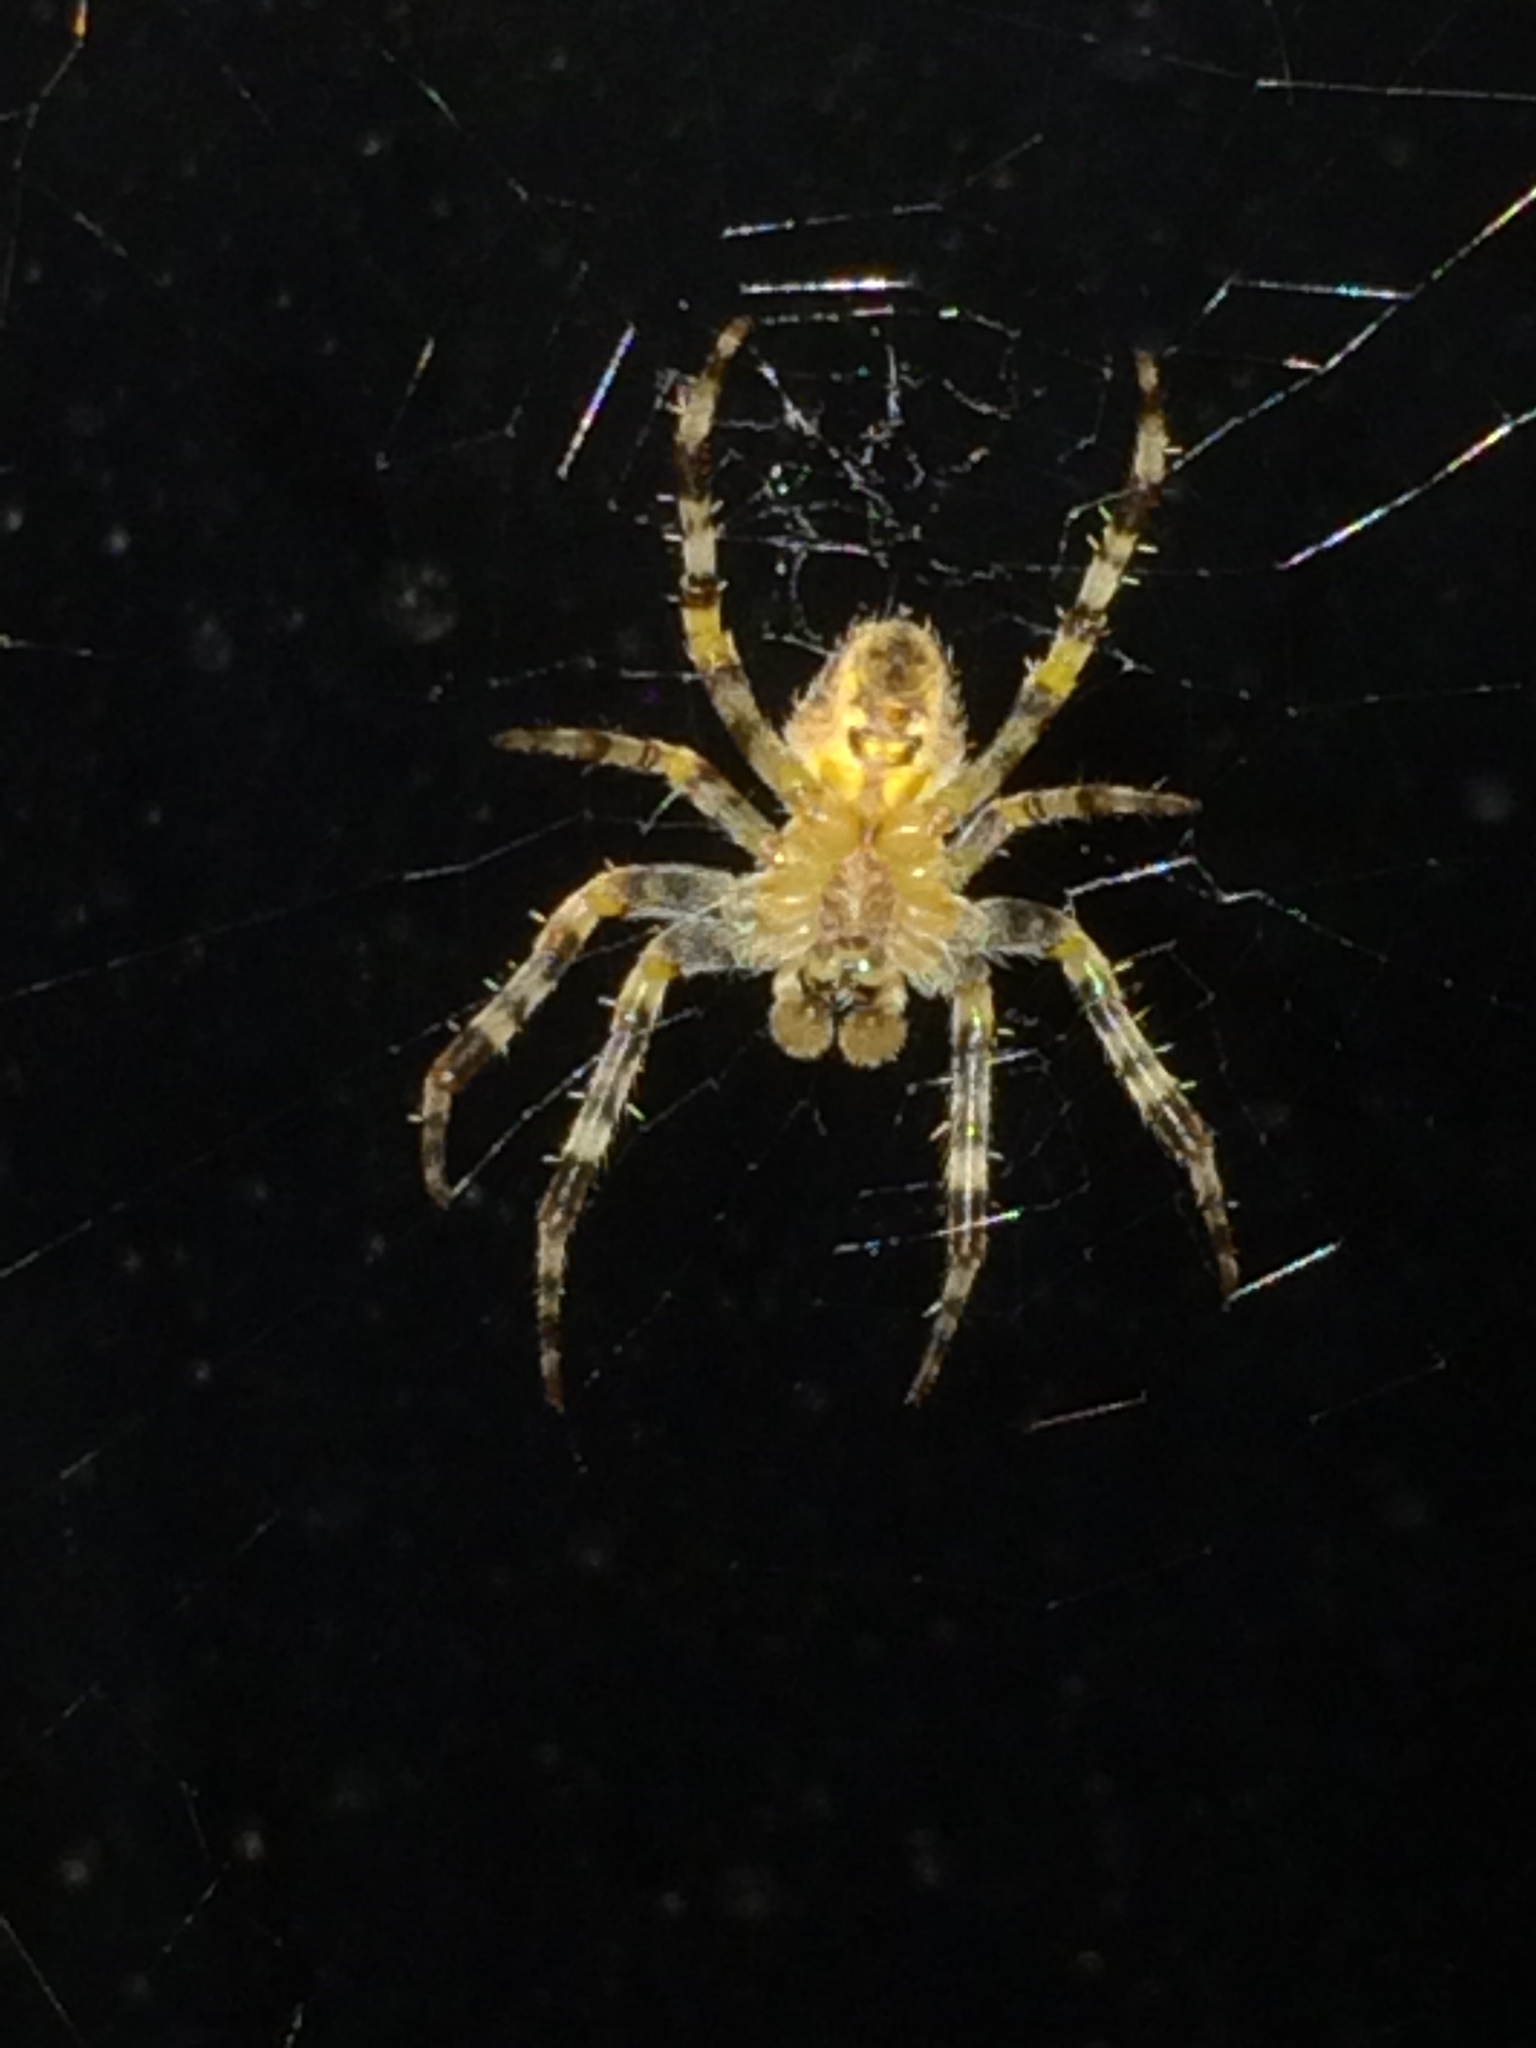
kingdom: Animalia
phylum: Arthropoda
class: Arachnida
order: Araneae
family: Araneidae
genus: Araneus
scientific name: Araneus diadematus
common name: Cross orbweaver
